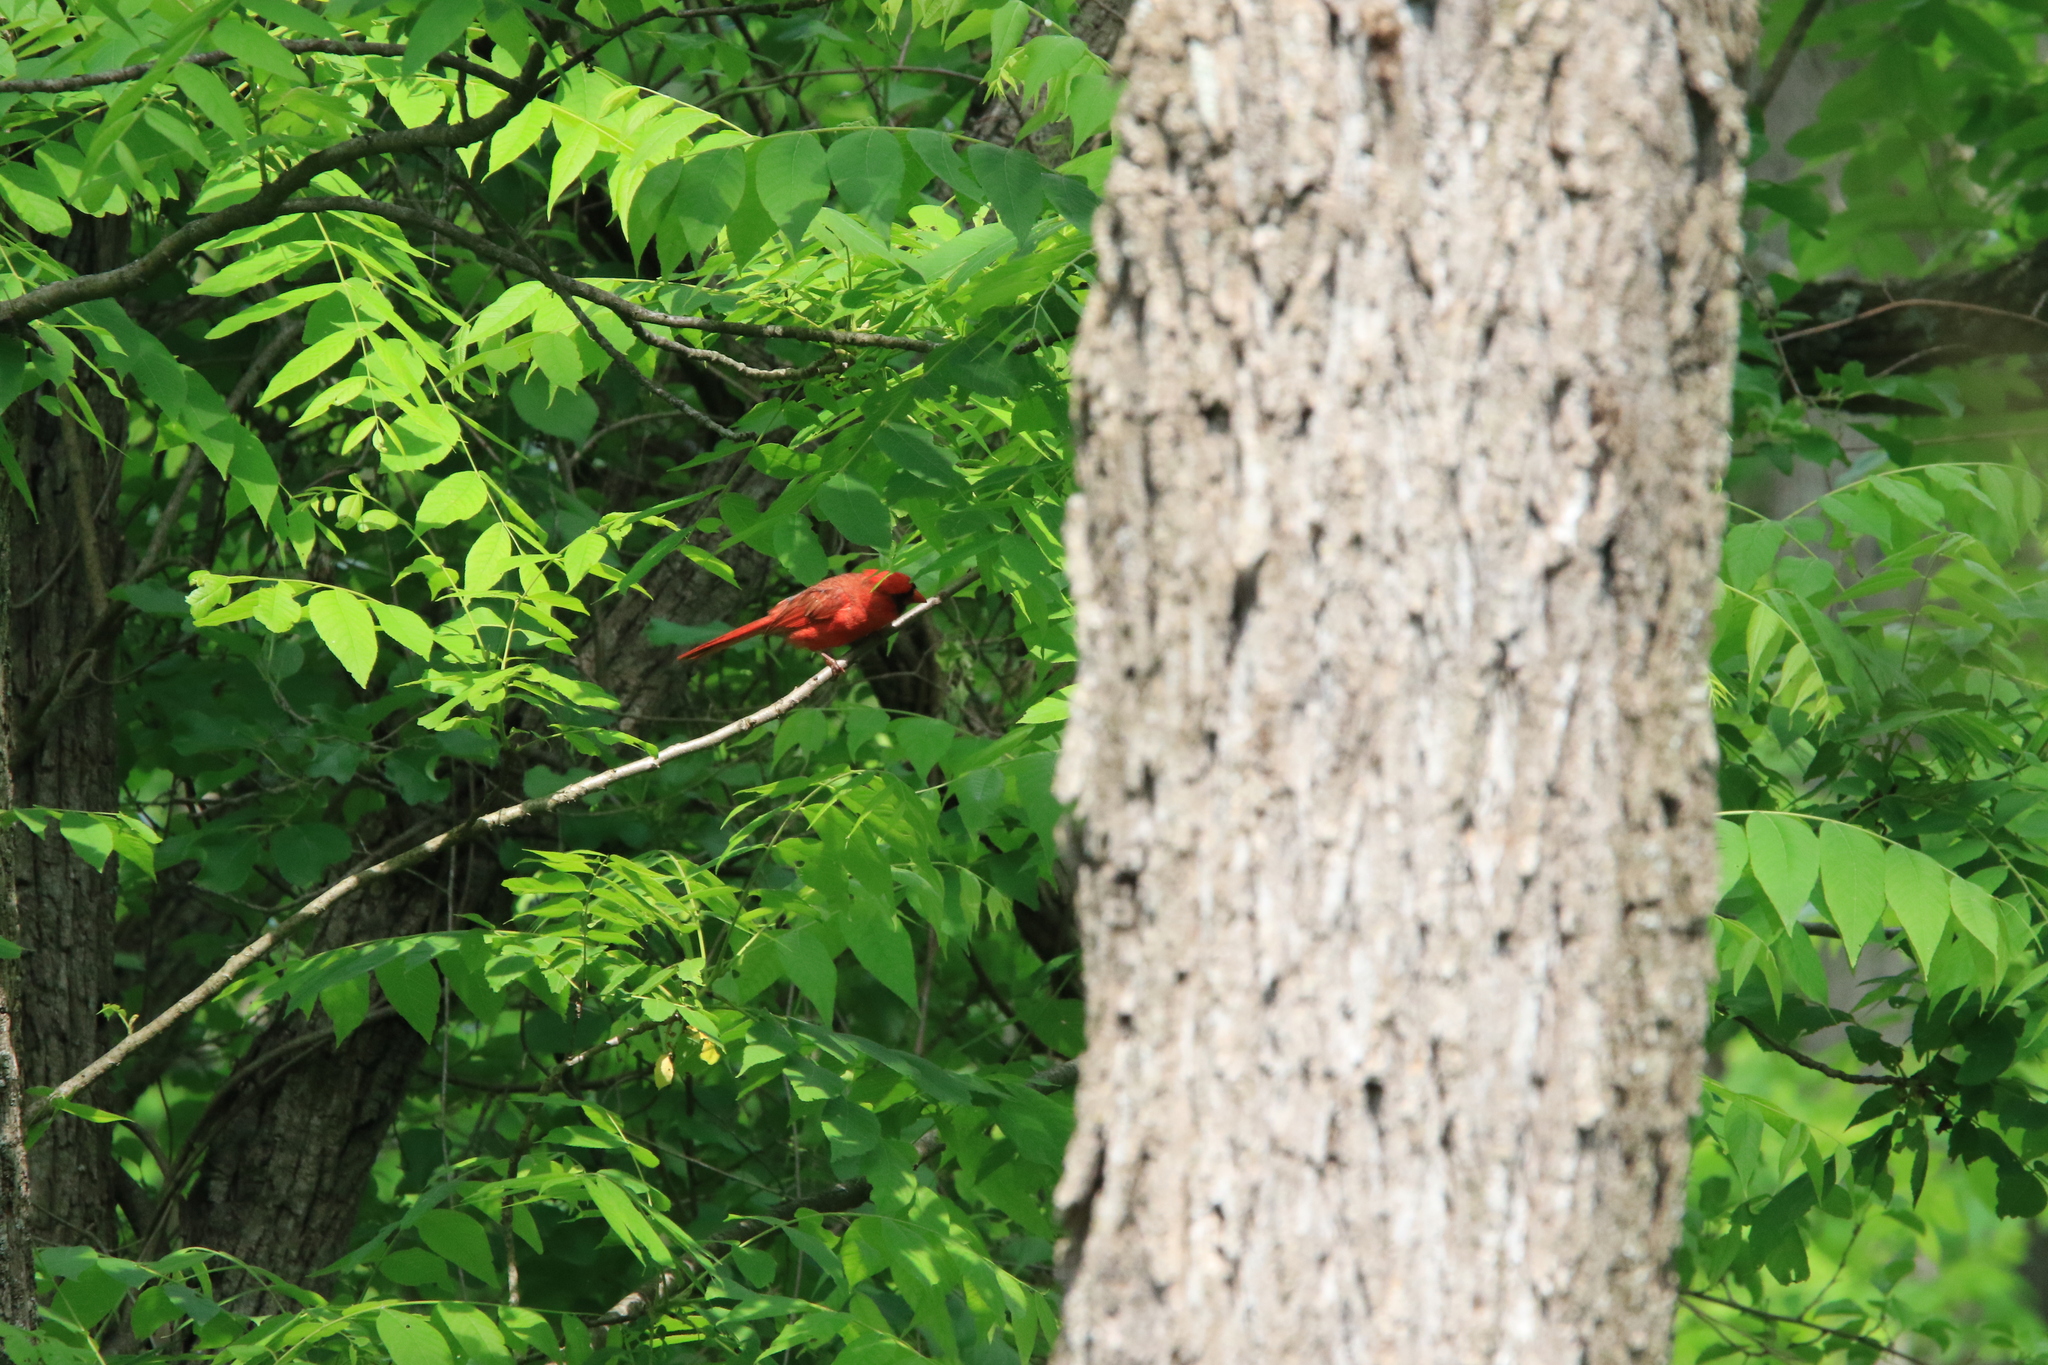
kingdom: Animalia
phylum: Chordata
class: Aves
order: Passeriformes
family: Cardinalidae
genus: Cardinalis
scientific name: Cardinalis cardinalis
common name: Northern cardinal
